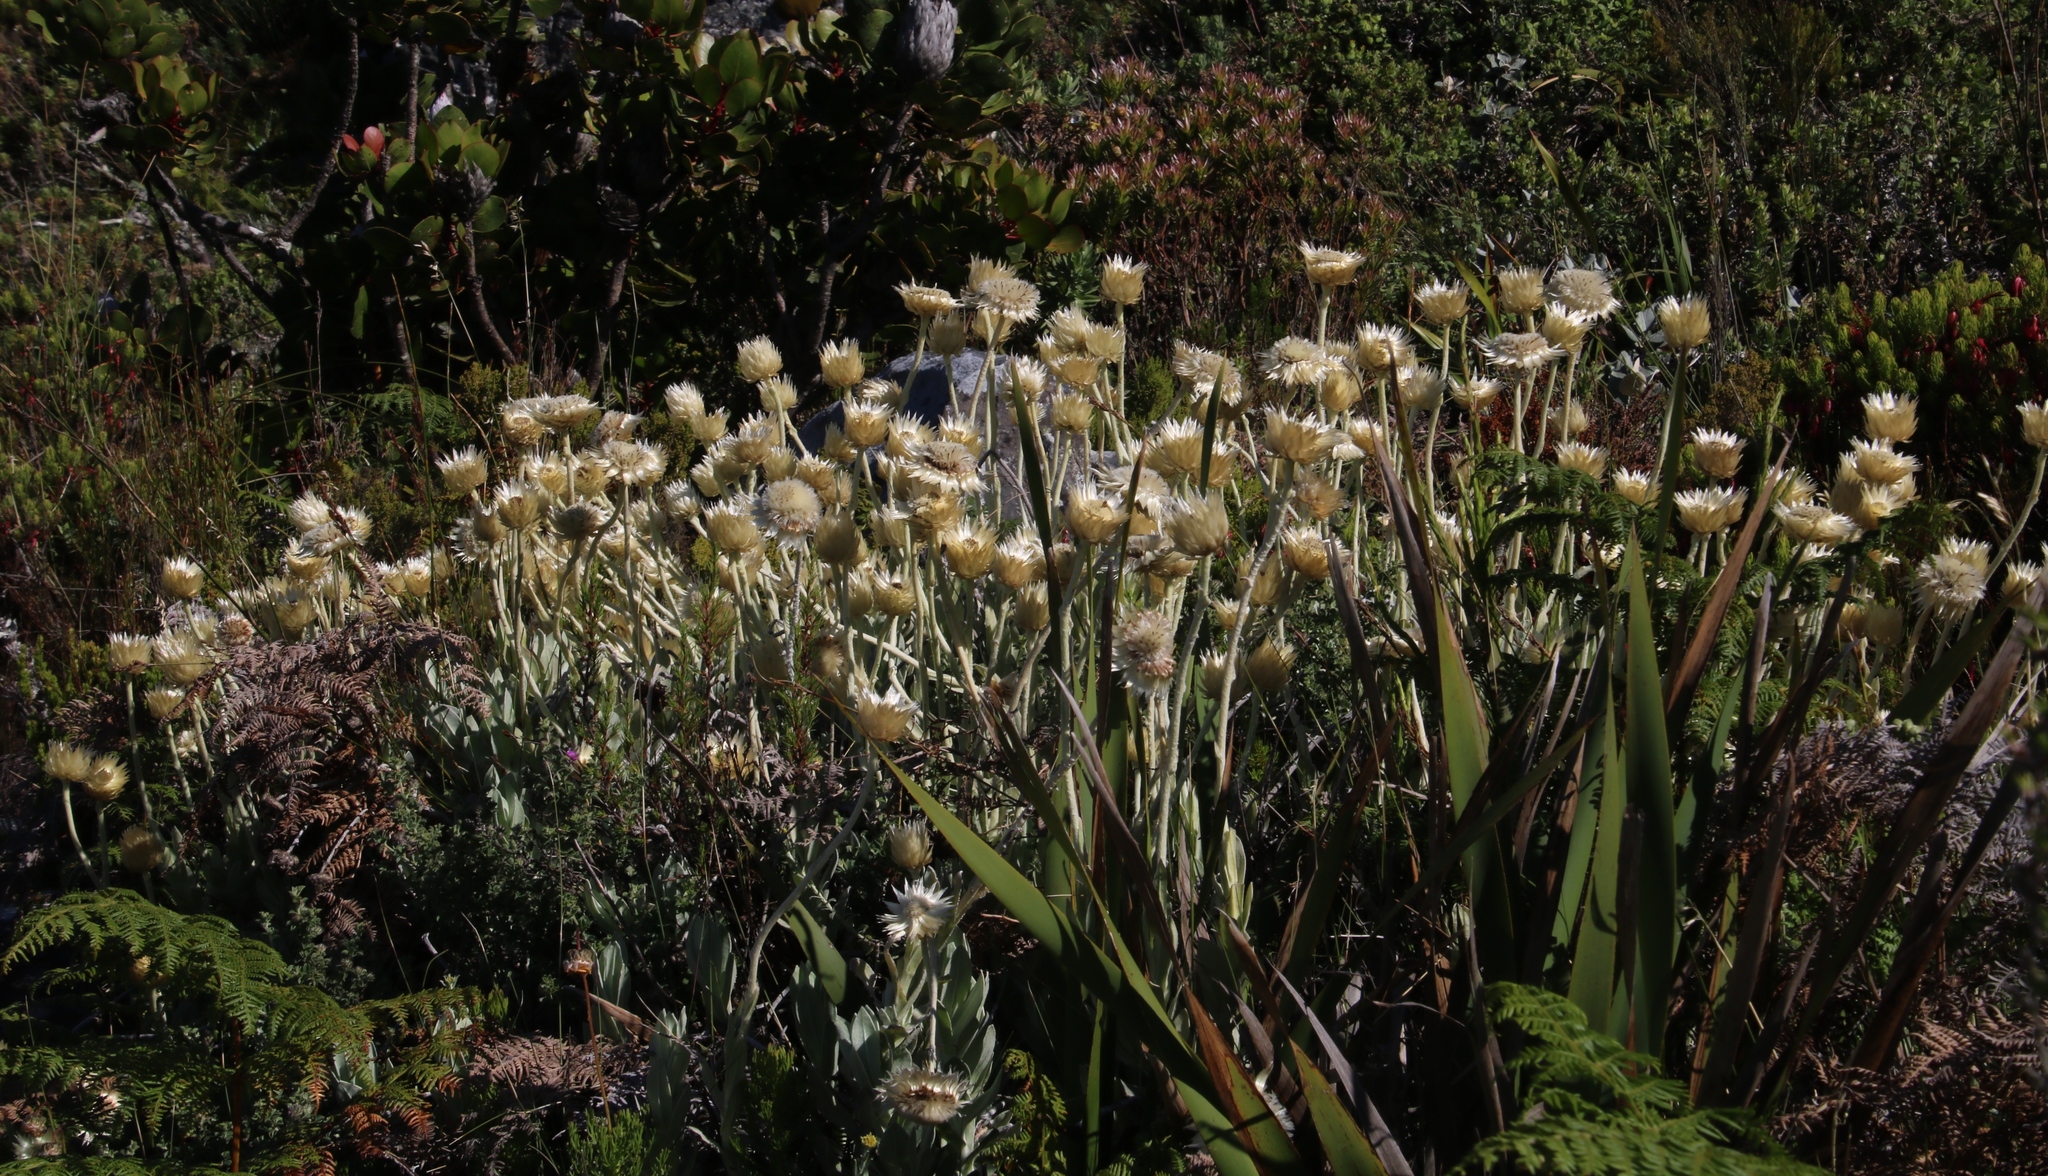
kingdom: Plantae
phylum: Tracheophyta
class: Magnoliopsida
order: Asterales
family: Asteraceae
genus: Syncarpha
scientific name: Syncarpha speciosissima
